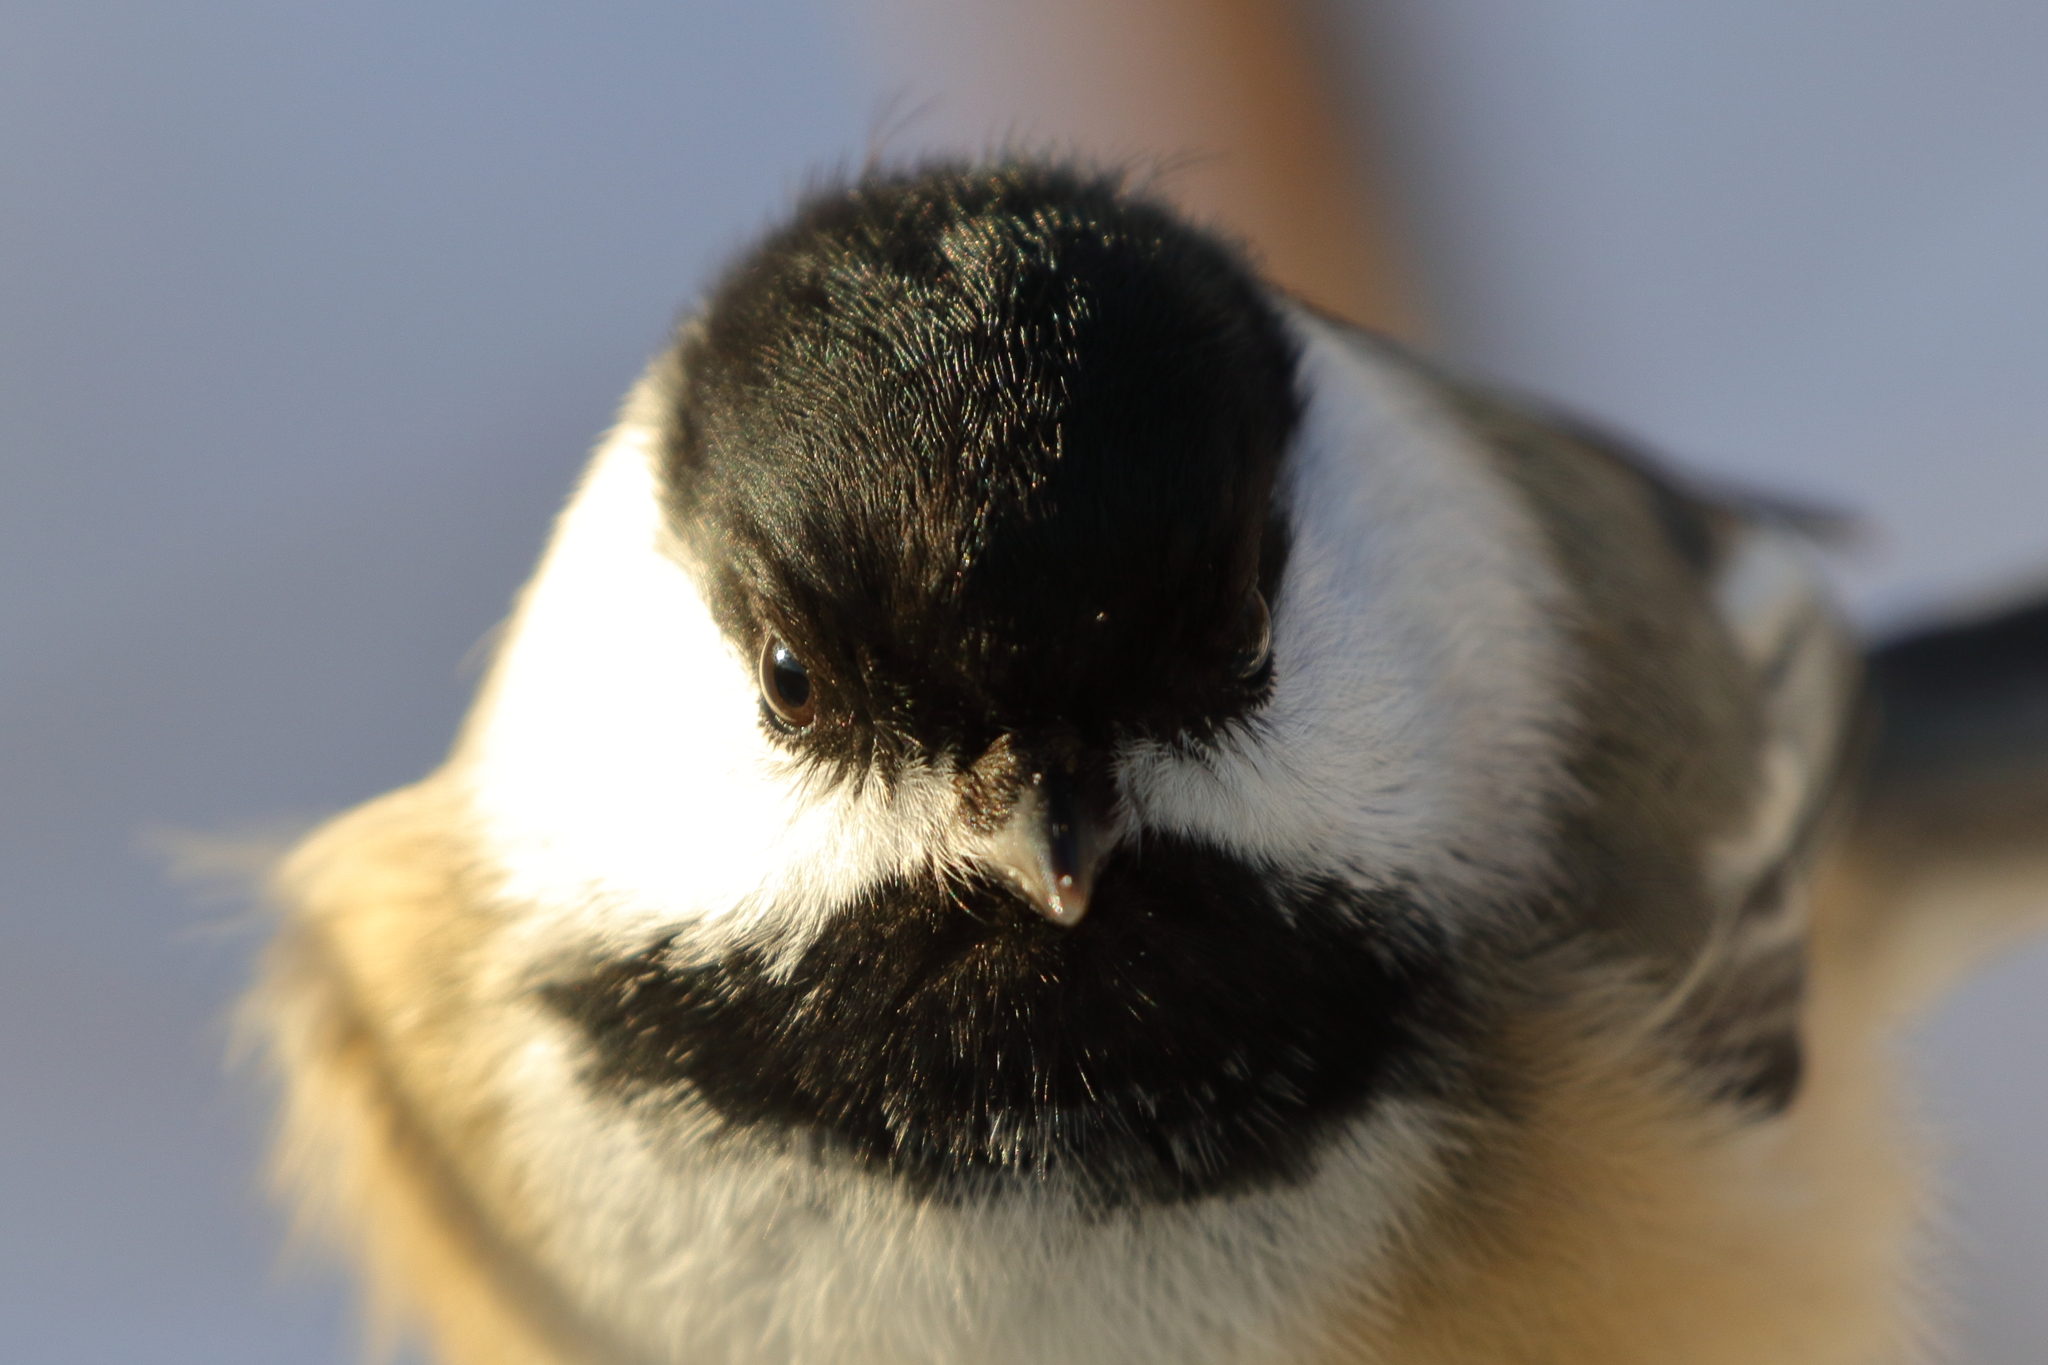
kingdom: Animalia
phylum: Chordata
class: Aves
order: Passeriformes
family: Paridae
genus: Poecile
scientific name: Poecile atricapillus
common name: Black-capped chickadee
